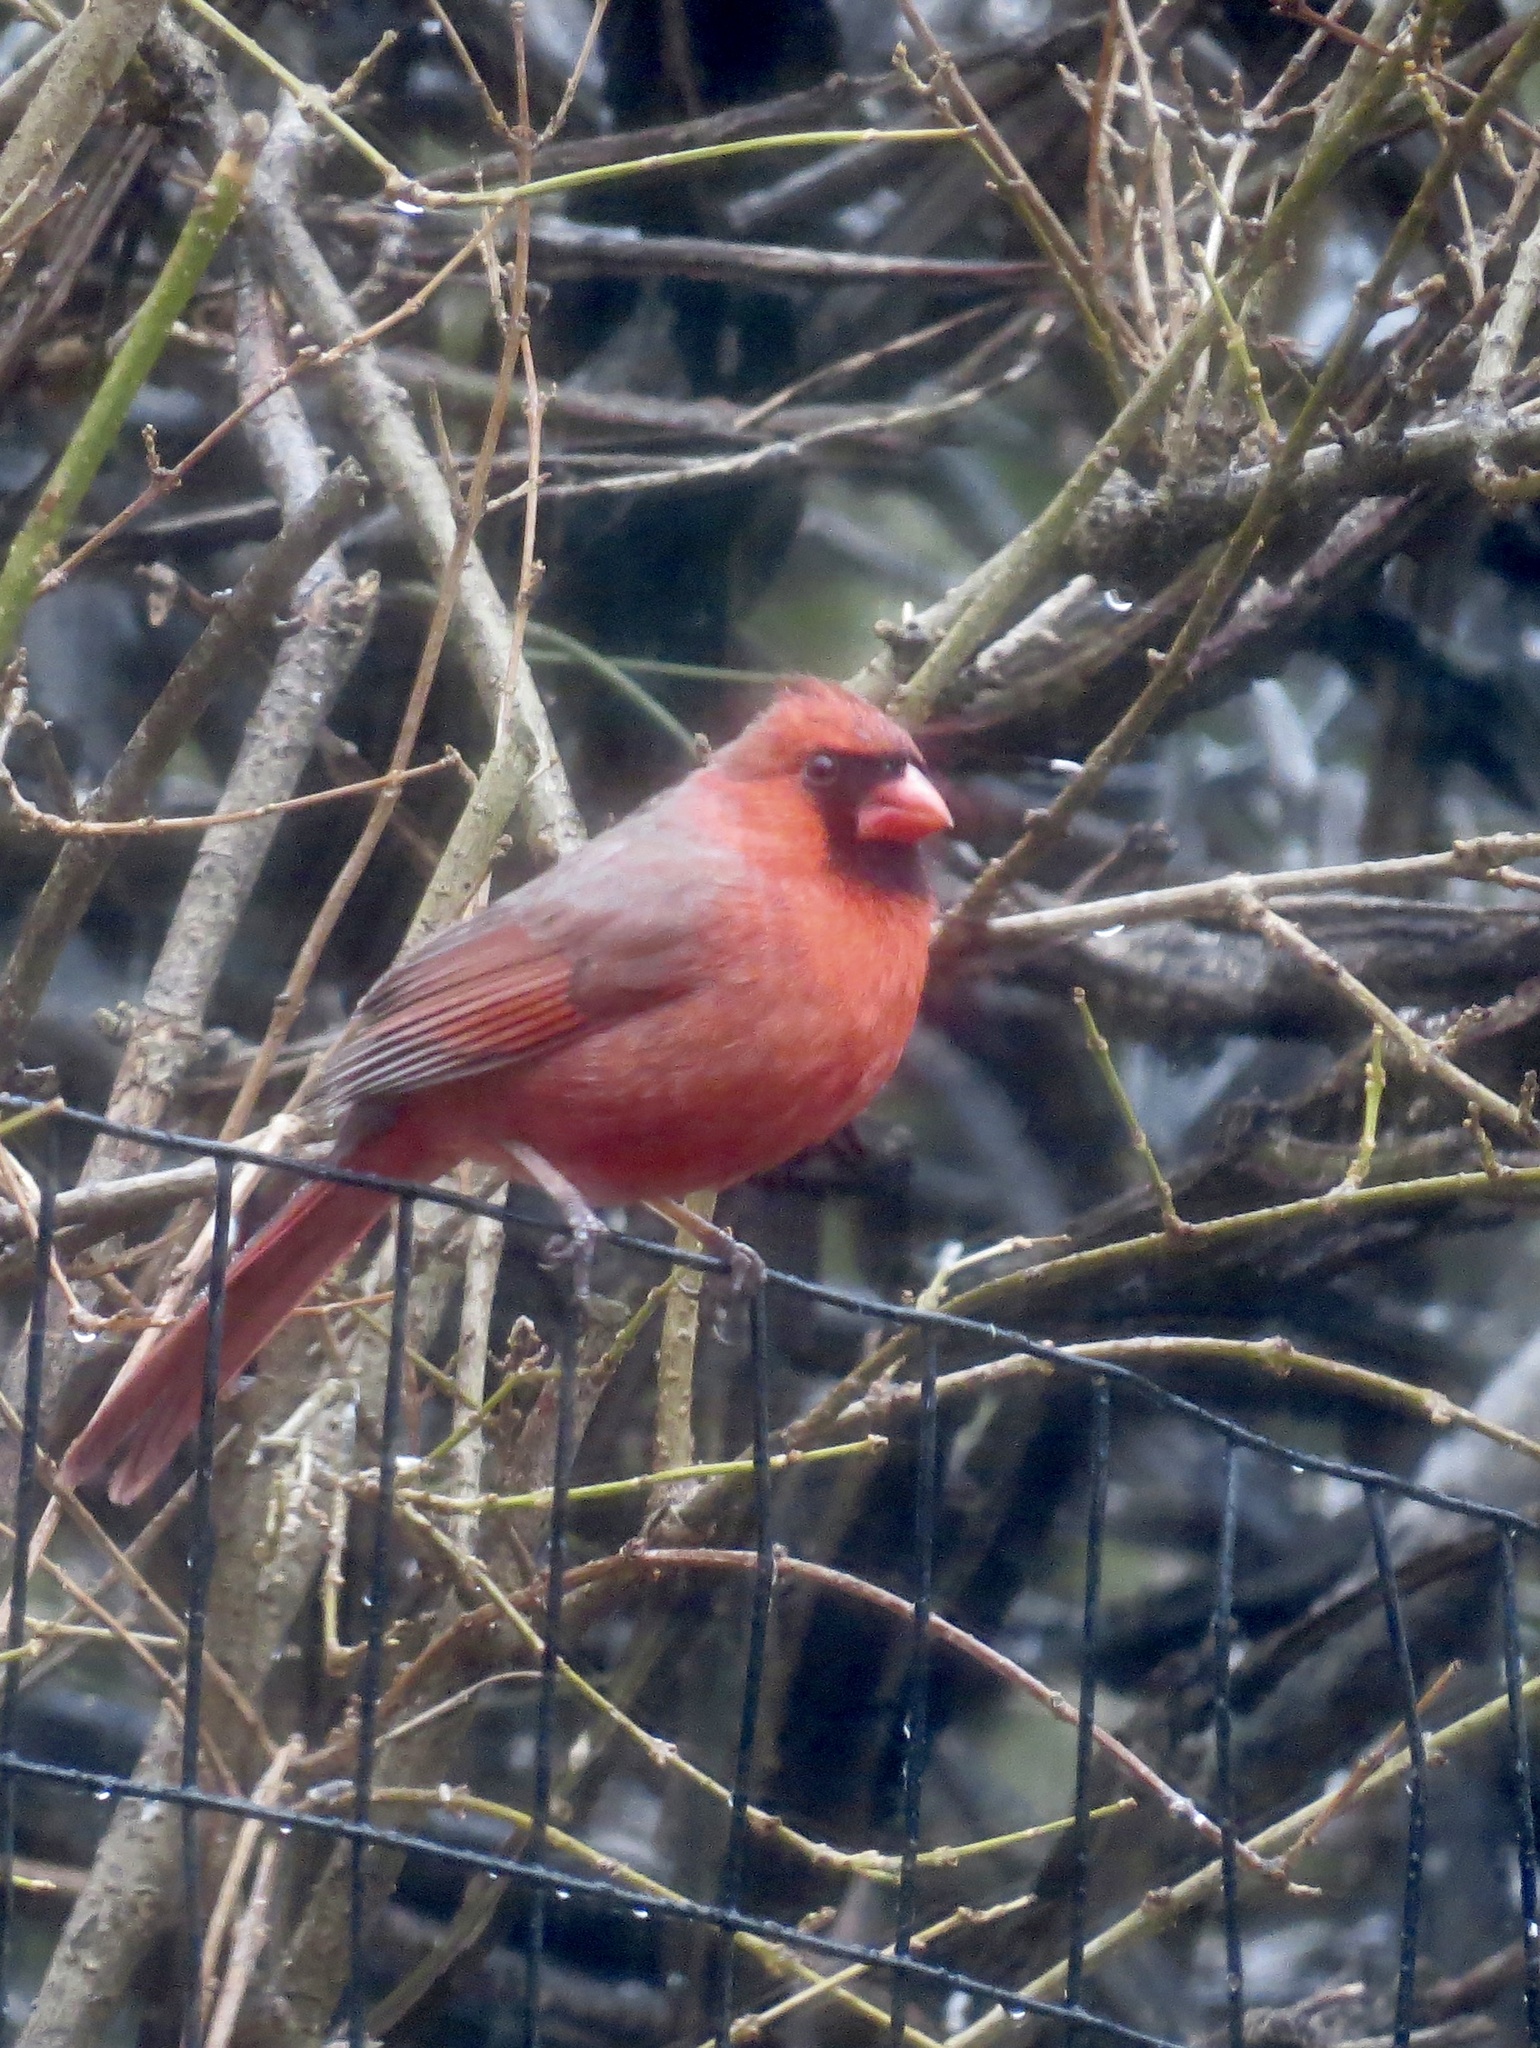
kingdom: Animalia
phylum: Chordata
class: Aves
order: Passeriformes
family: Cardinalidae
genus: Cardinalis
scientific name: Cardinalis cardinalis
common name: Northern cardinal
